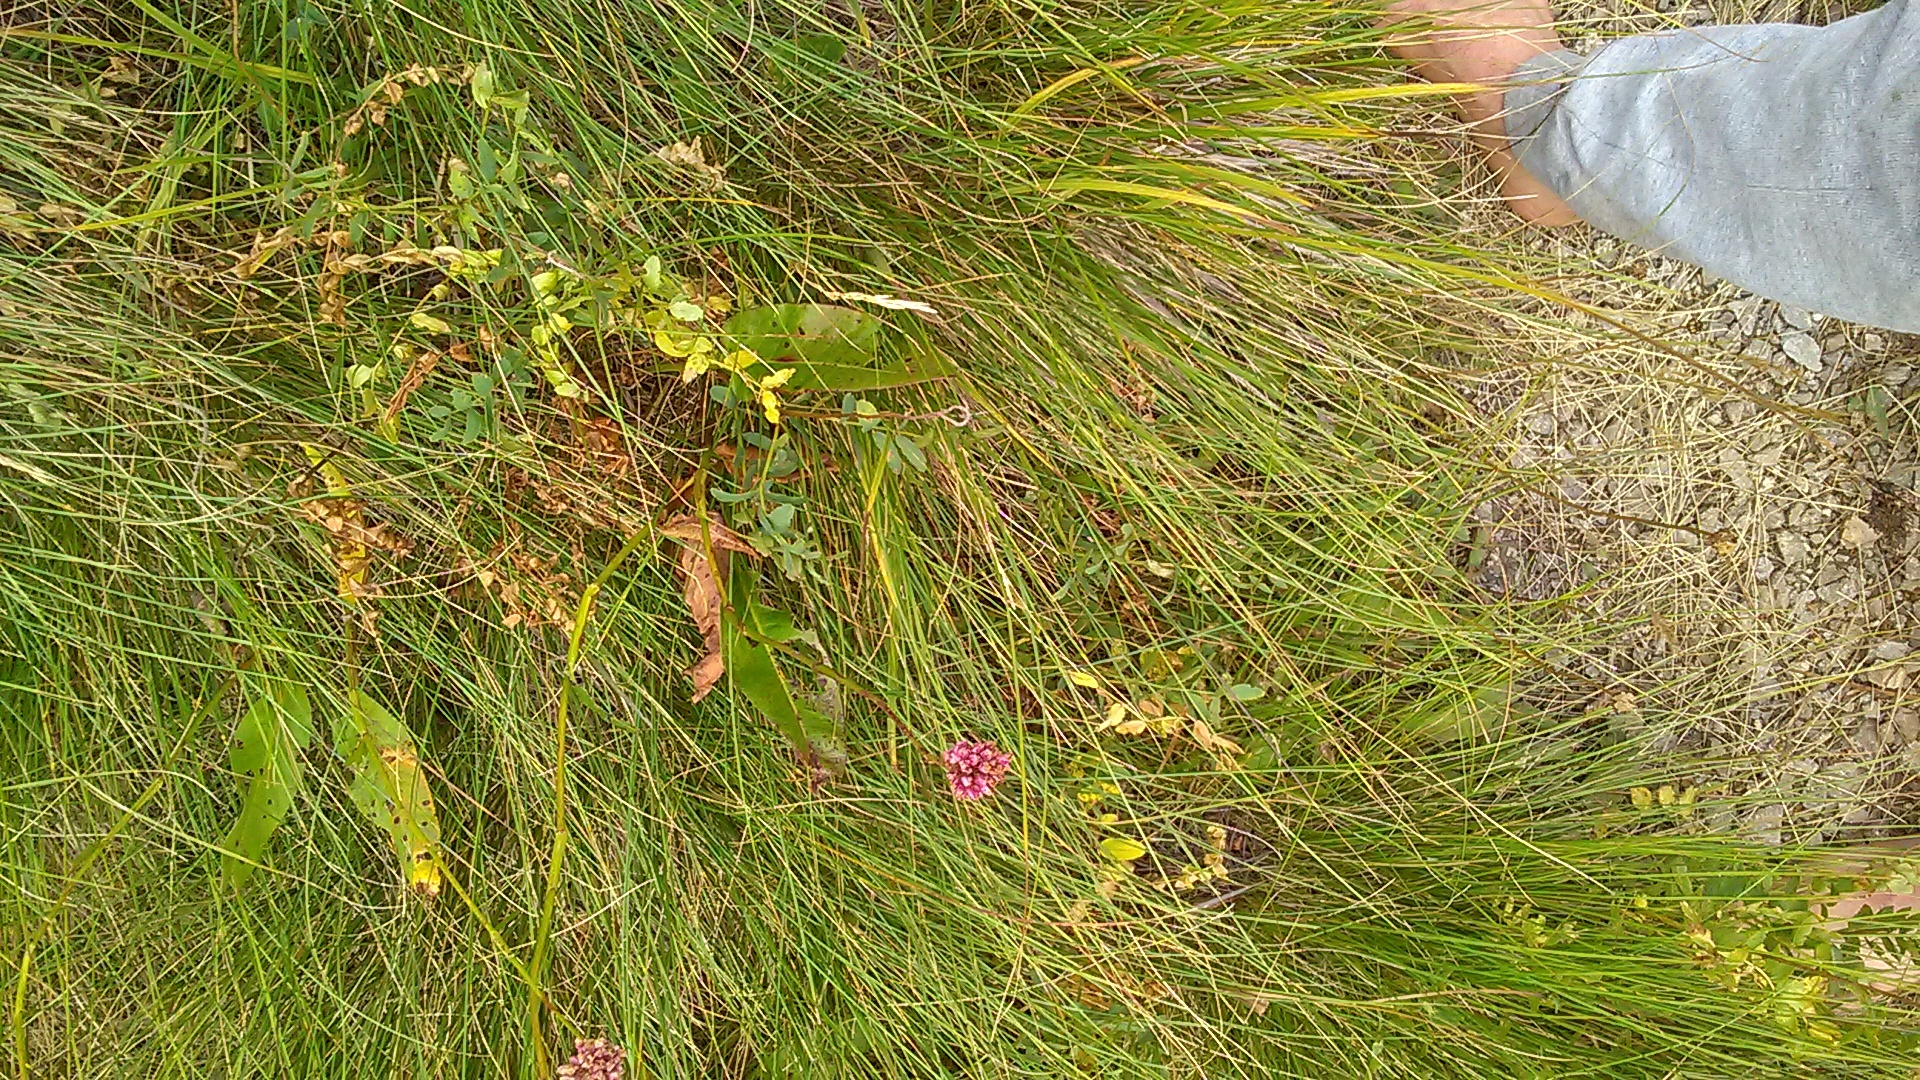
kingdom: Plantae
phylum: Tracheophyta
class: Magnoliopsida
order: Caryophyllales
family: Polygonaceae
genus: Bistorta
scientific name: Bistorta carnea
